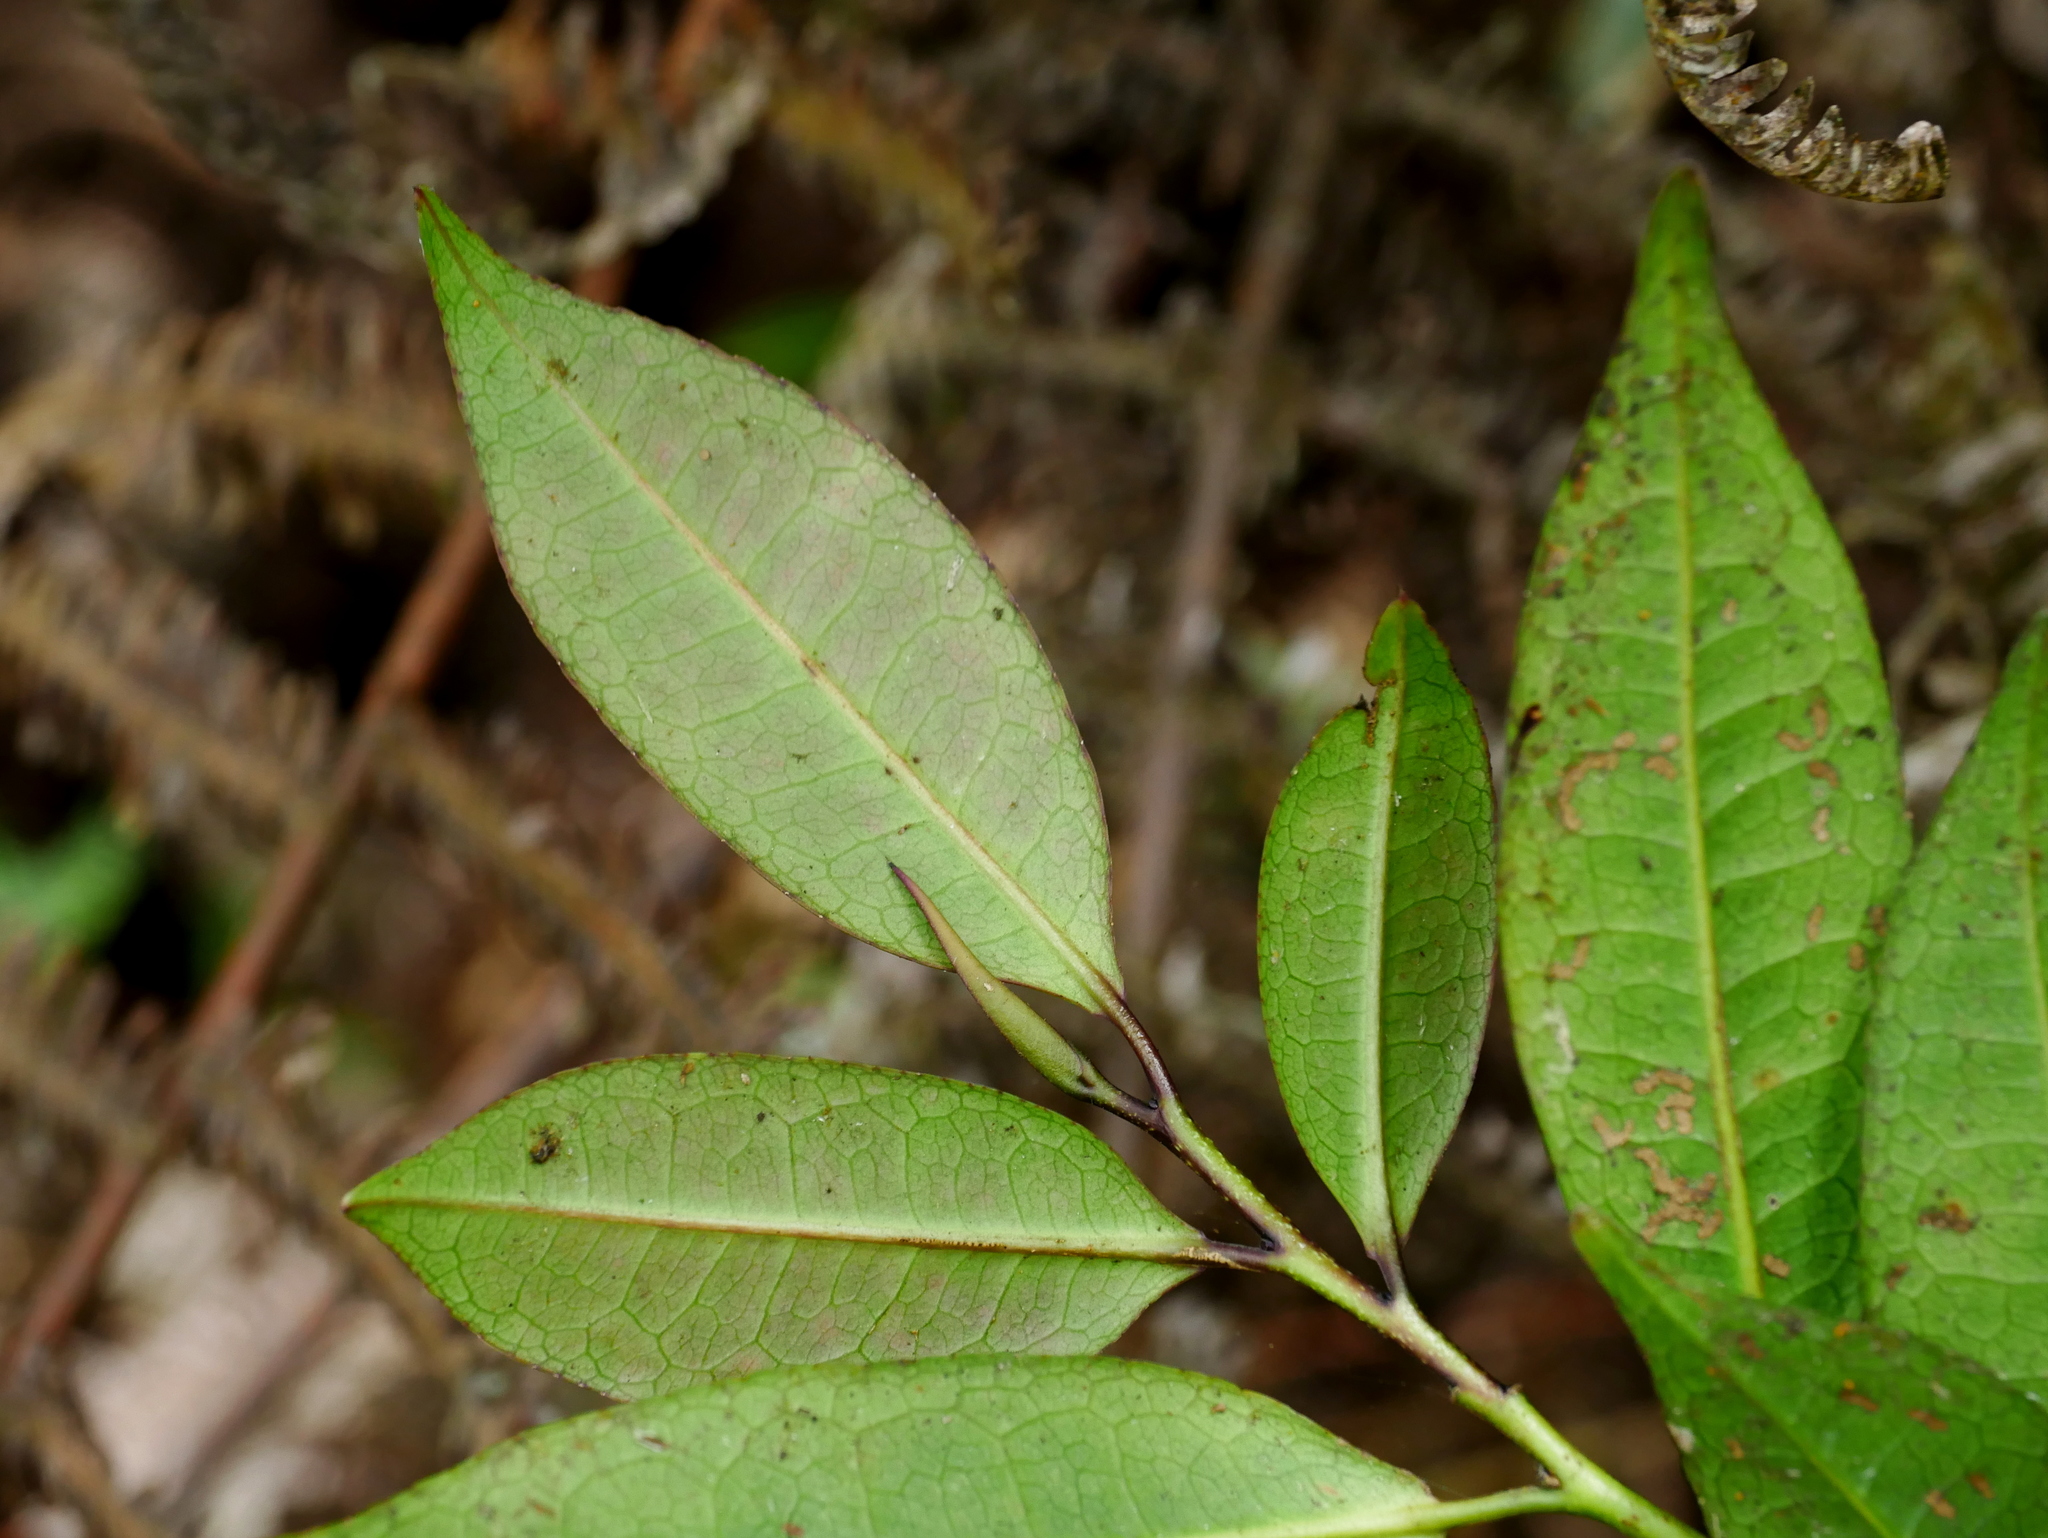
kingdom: Plantae
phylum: Tracheophyta
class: Magnoliopsida
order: Ericales
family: Pentaphylacaceae
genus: Eurya
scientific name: Eurya rengechiensis
